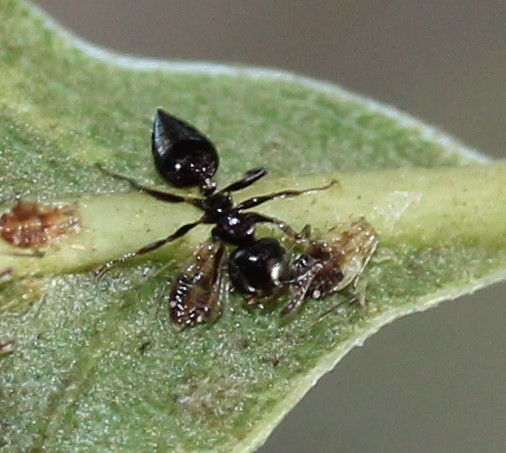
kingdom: Animalia
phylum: Arthropoda
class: Insecta
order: Hymenoptera
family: Formicidae
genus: Crematogaster
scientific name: Crematogaster ashmeadi
